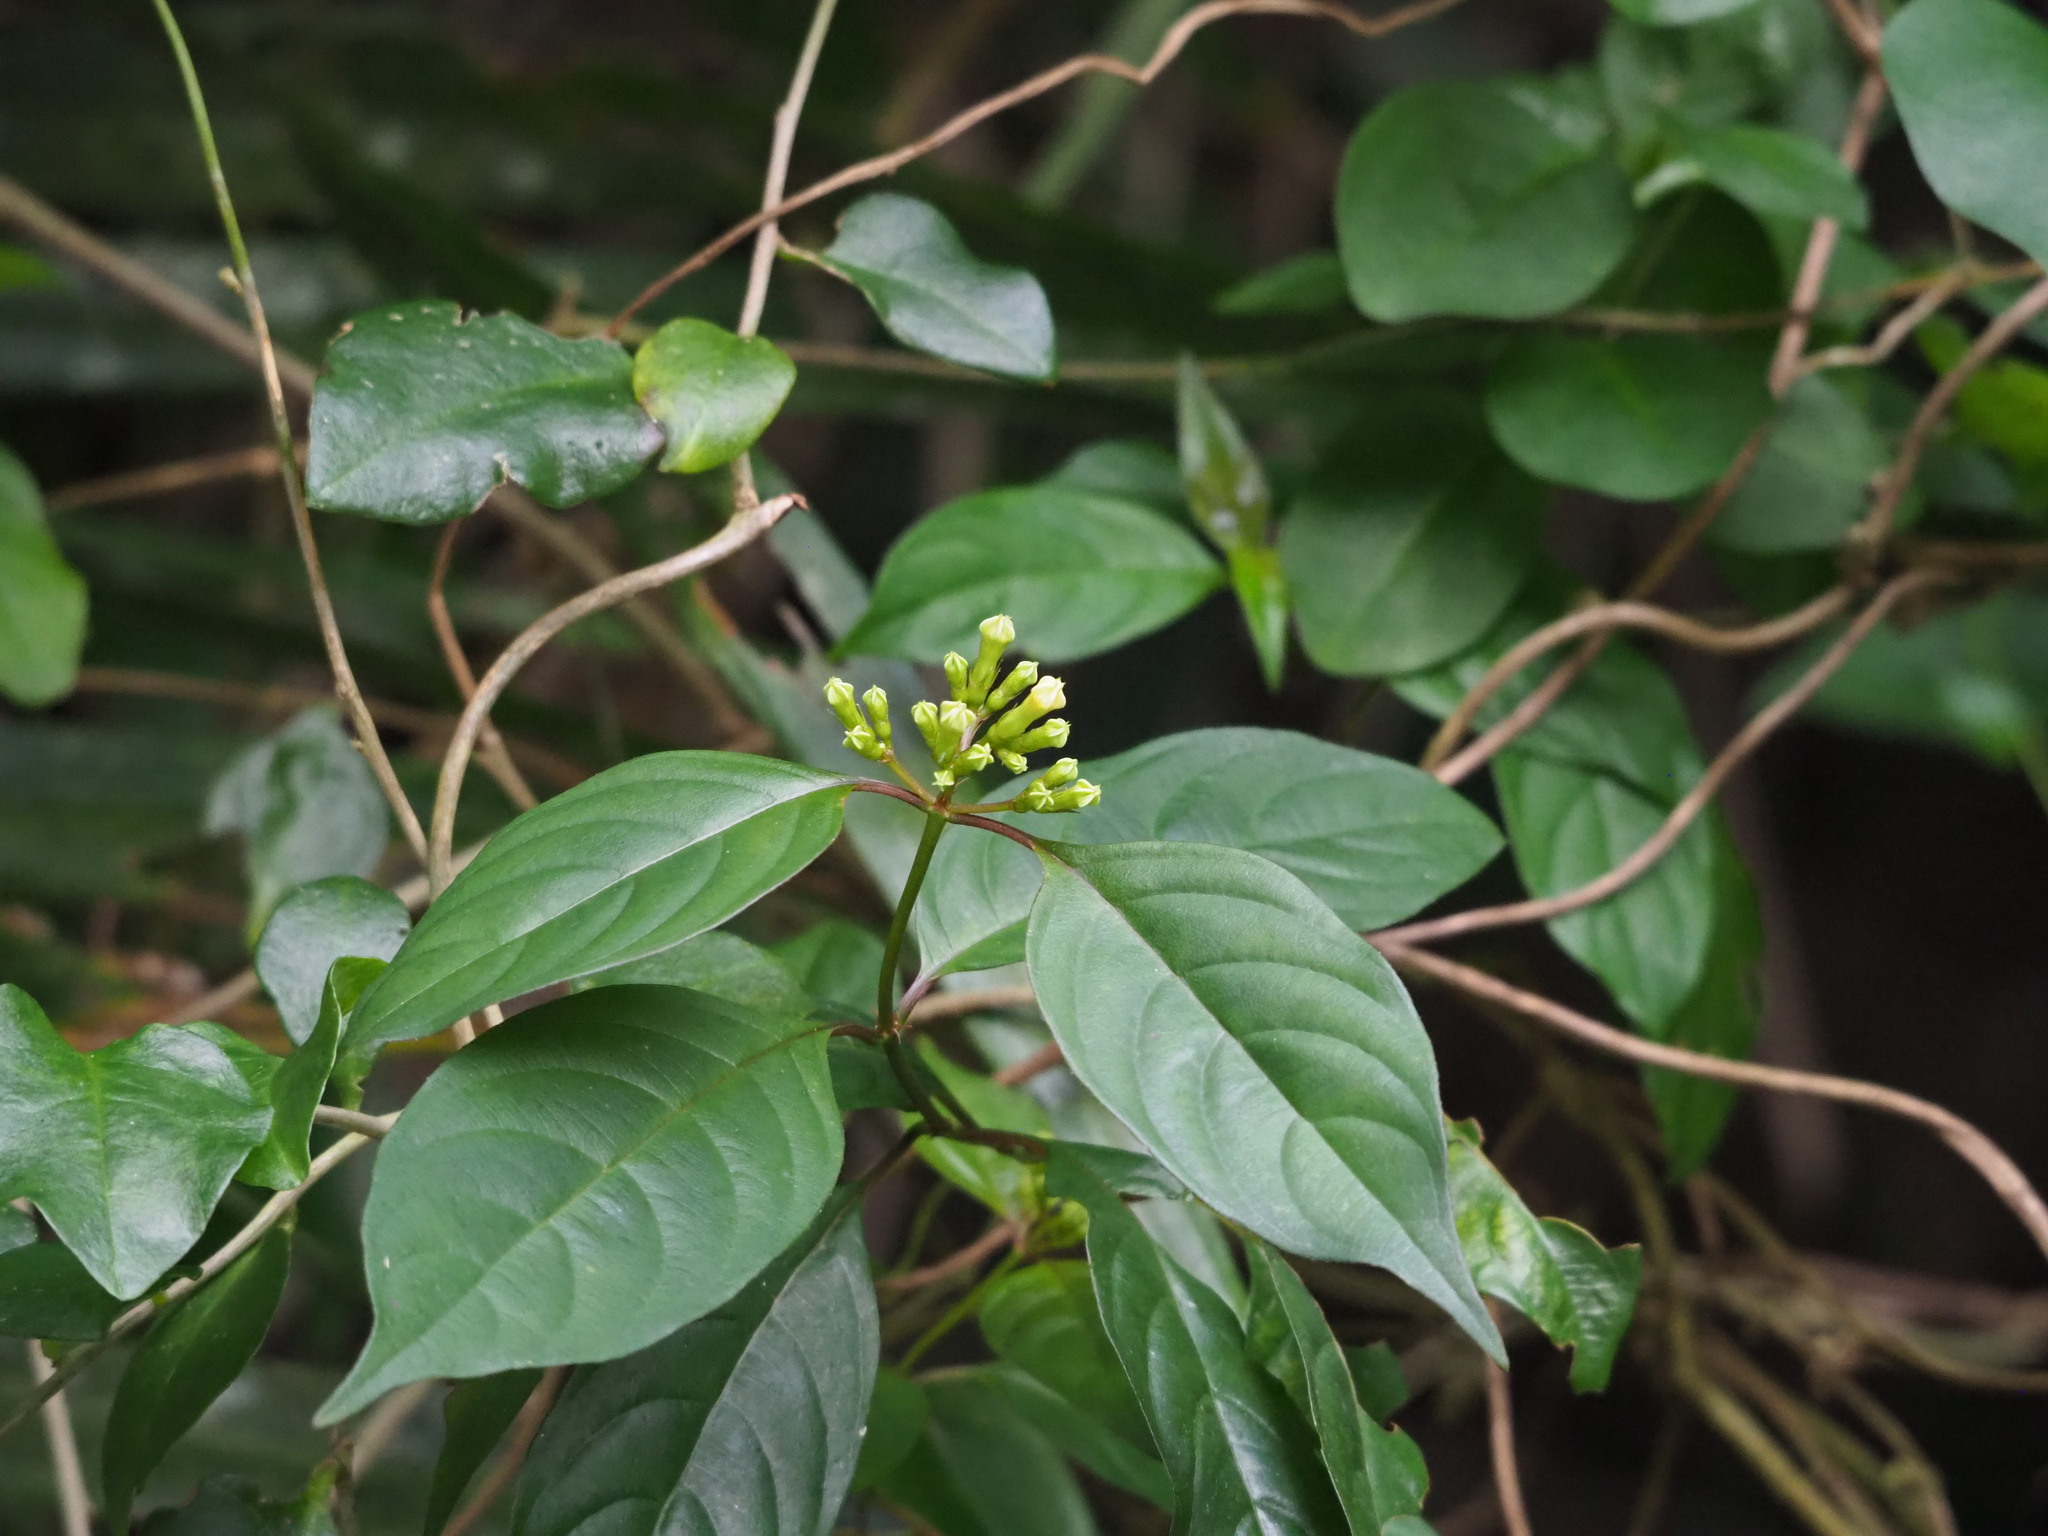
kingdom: Plantae
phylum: Tracheophyta
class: Magnoliopsida
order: Gentianales
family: Rubiaceae
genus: Mussaenda
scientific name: Mussaenda parviflora
